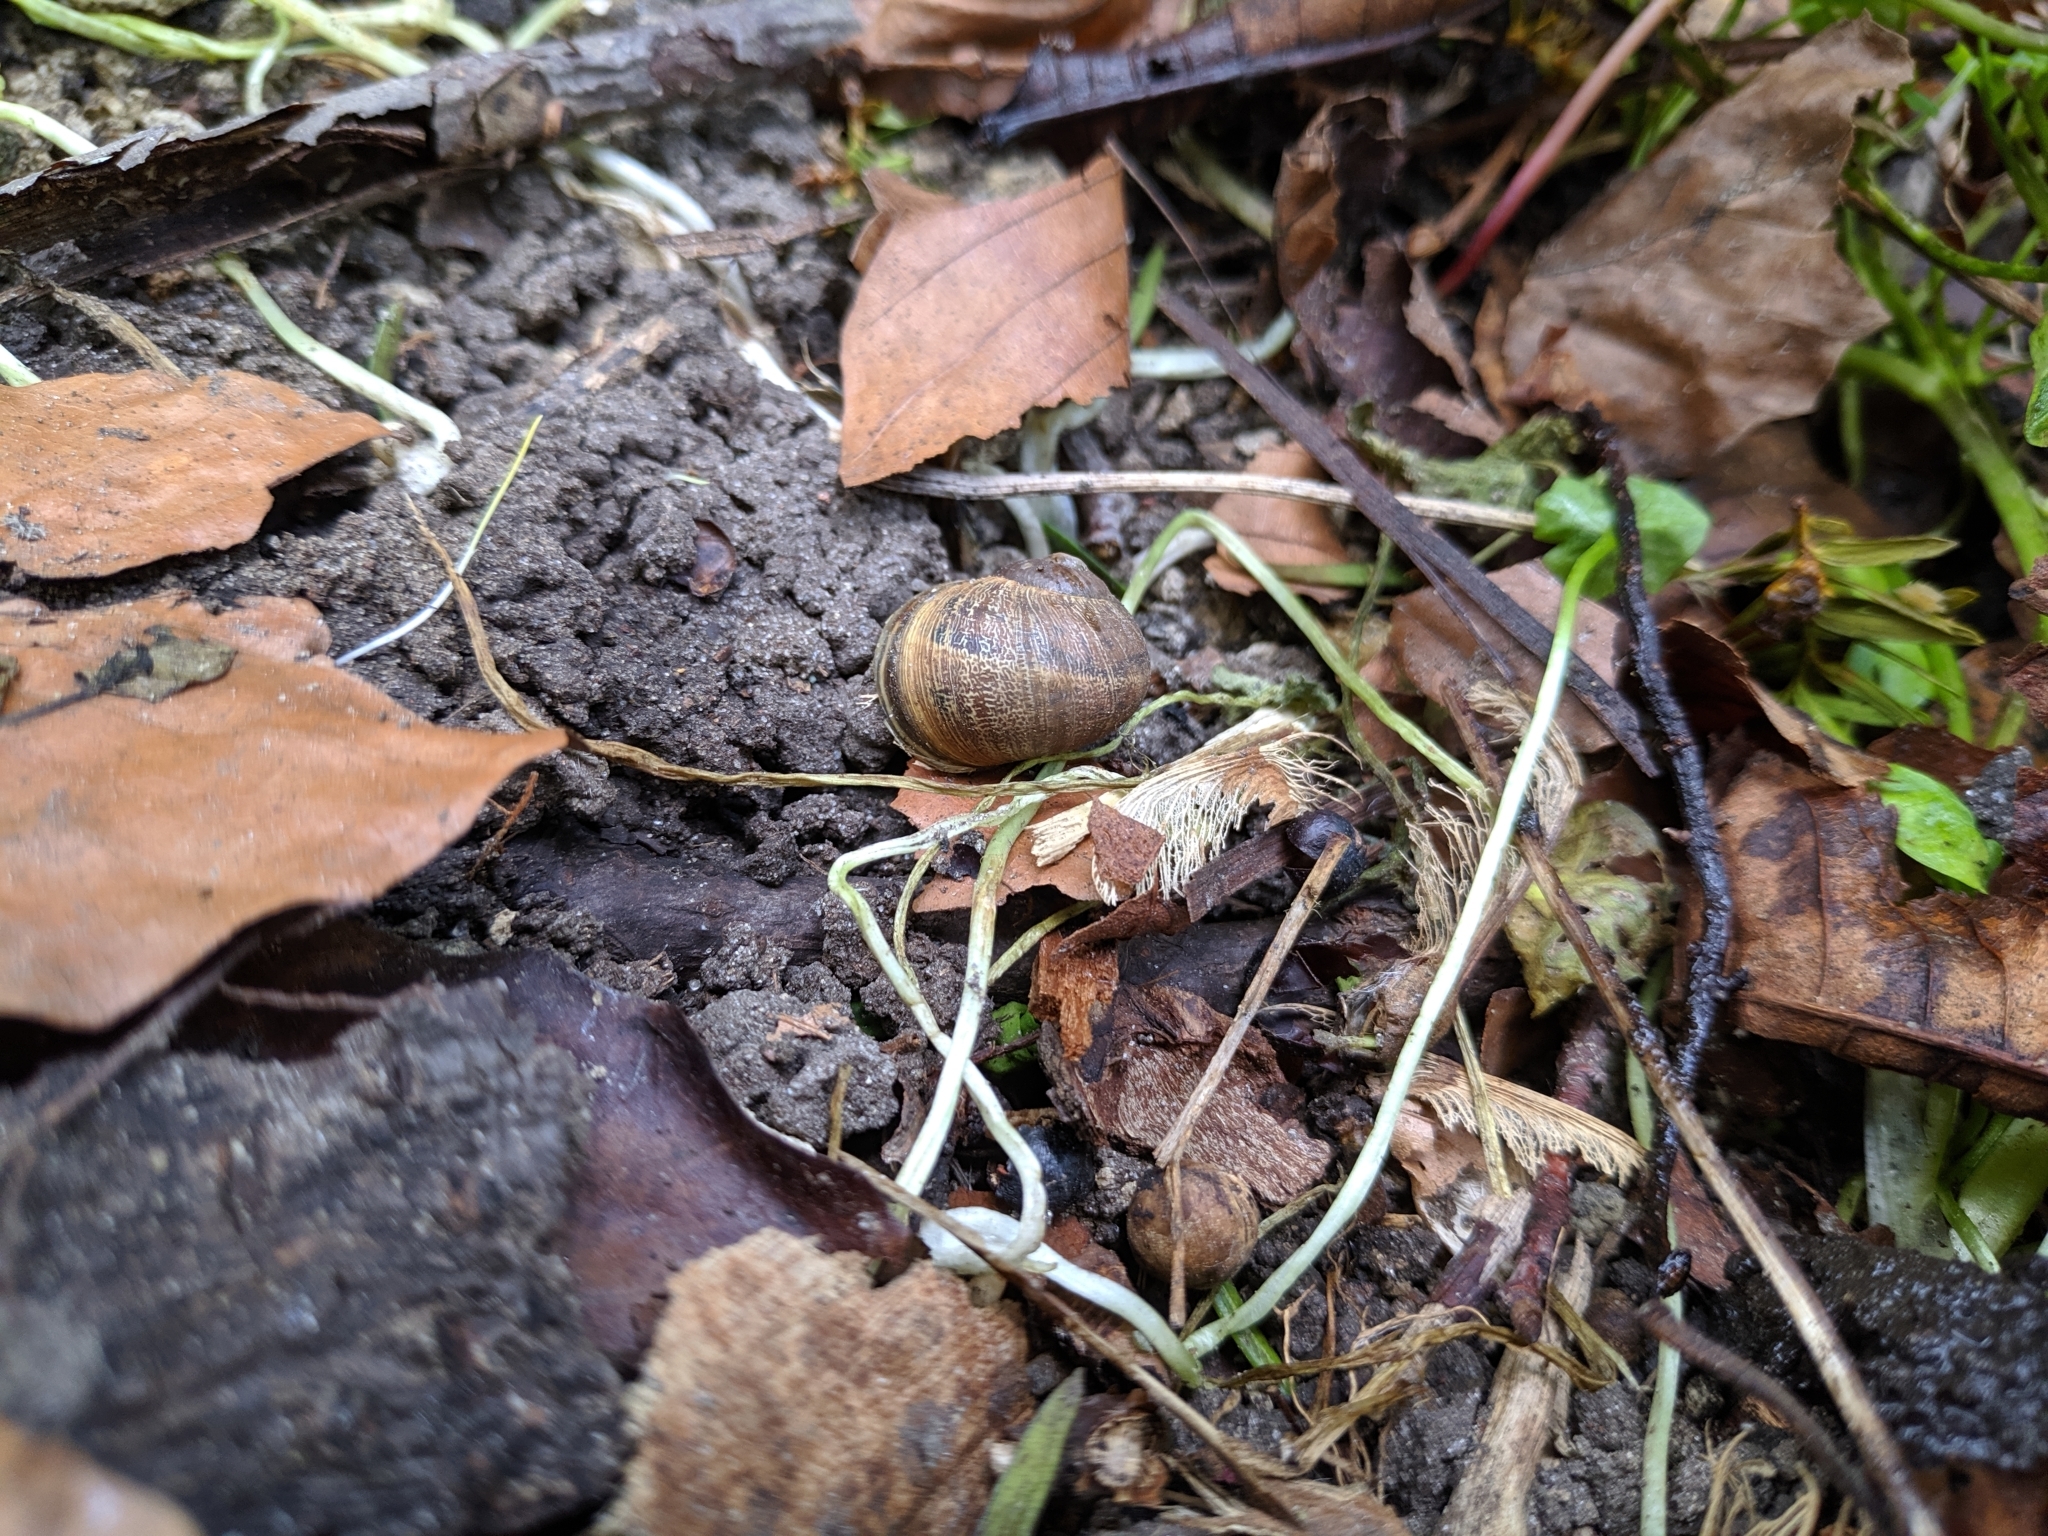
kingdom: Animalia
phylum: Mollusca
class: Gastropoda
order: Stylommatophora
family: Helicidae
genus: Cornu
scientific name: Cornu aspersum
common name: Brown garden snail
